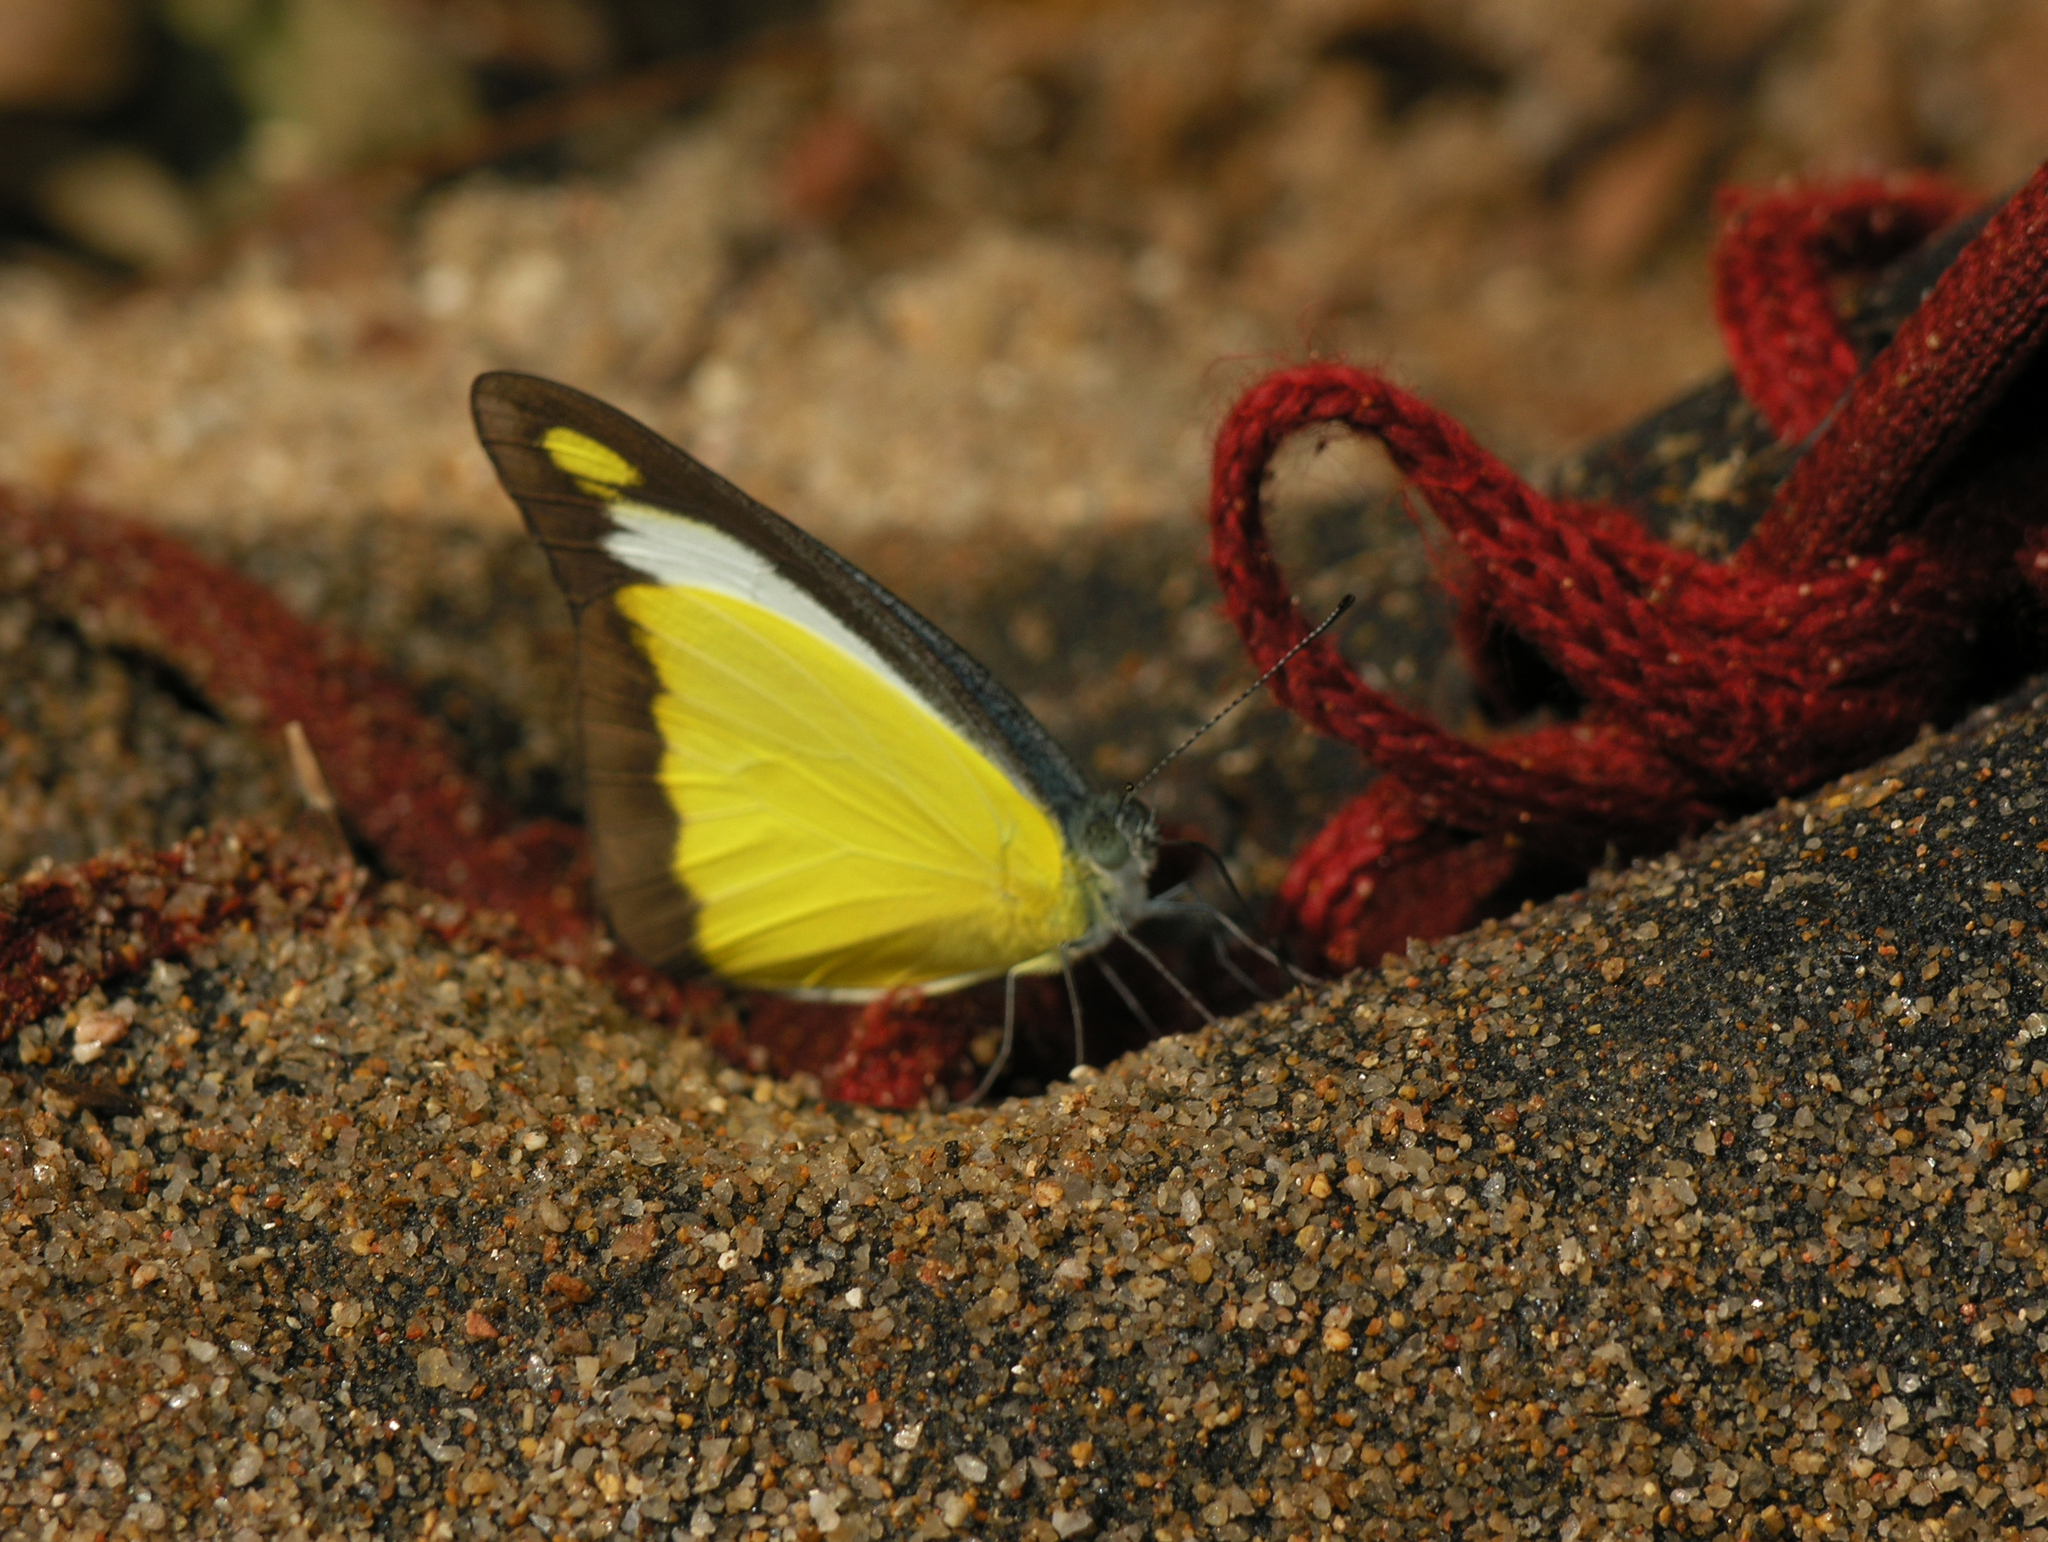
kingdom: Animalia
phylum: Arthropoda
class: Insecta
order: Lepidoptera
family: Pieridae
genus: Appias
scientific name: Appias lyncida
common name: Chocolate albatross
